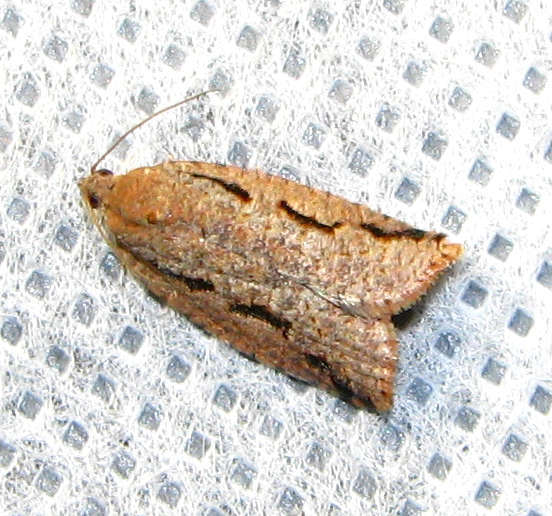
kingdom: Animalia
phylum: Arthropoda
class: Insecta
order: Lepidoptera
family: Tortricidae
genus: Meritastis
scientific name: Meritastis
